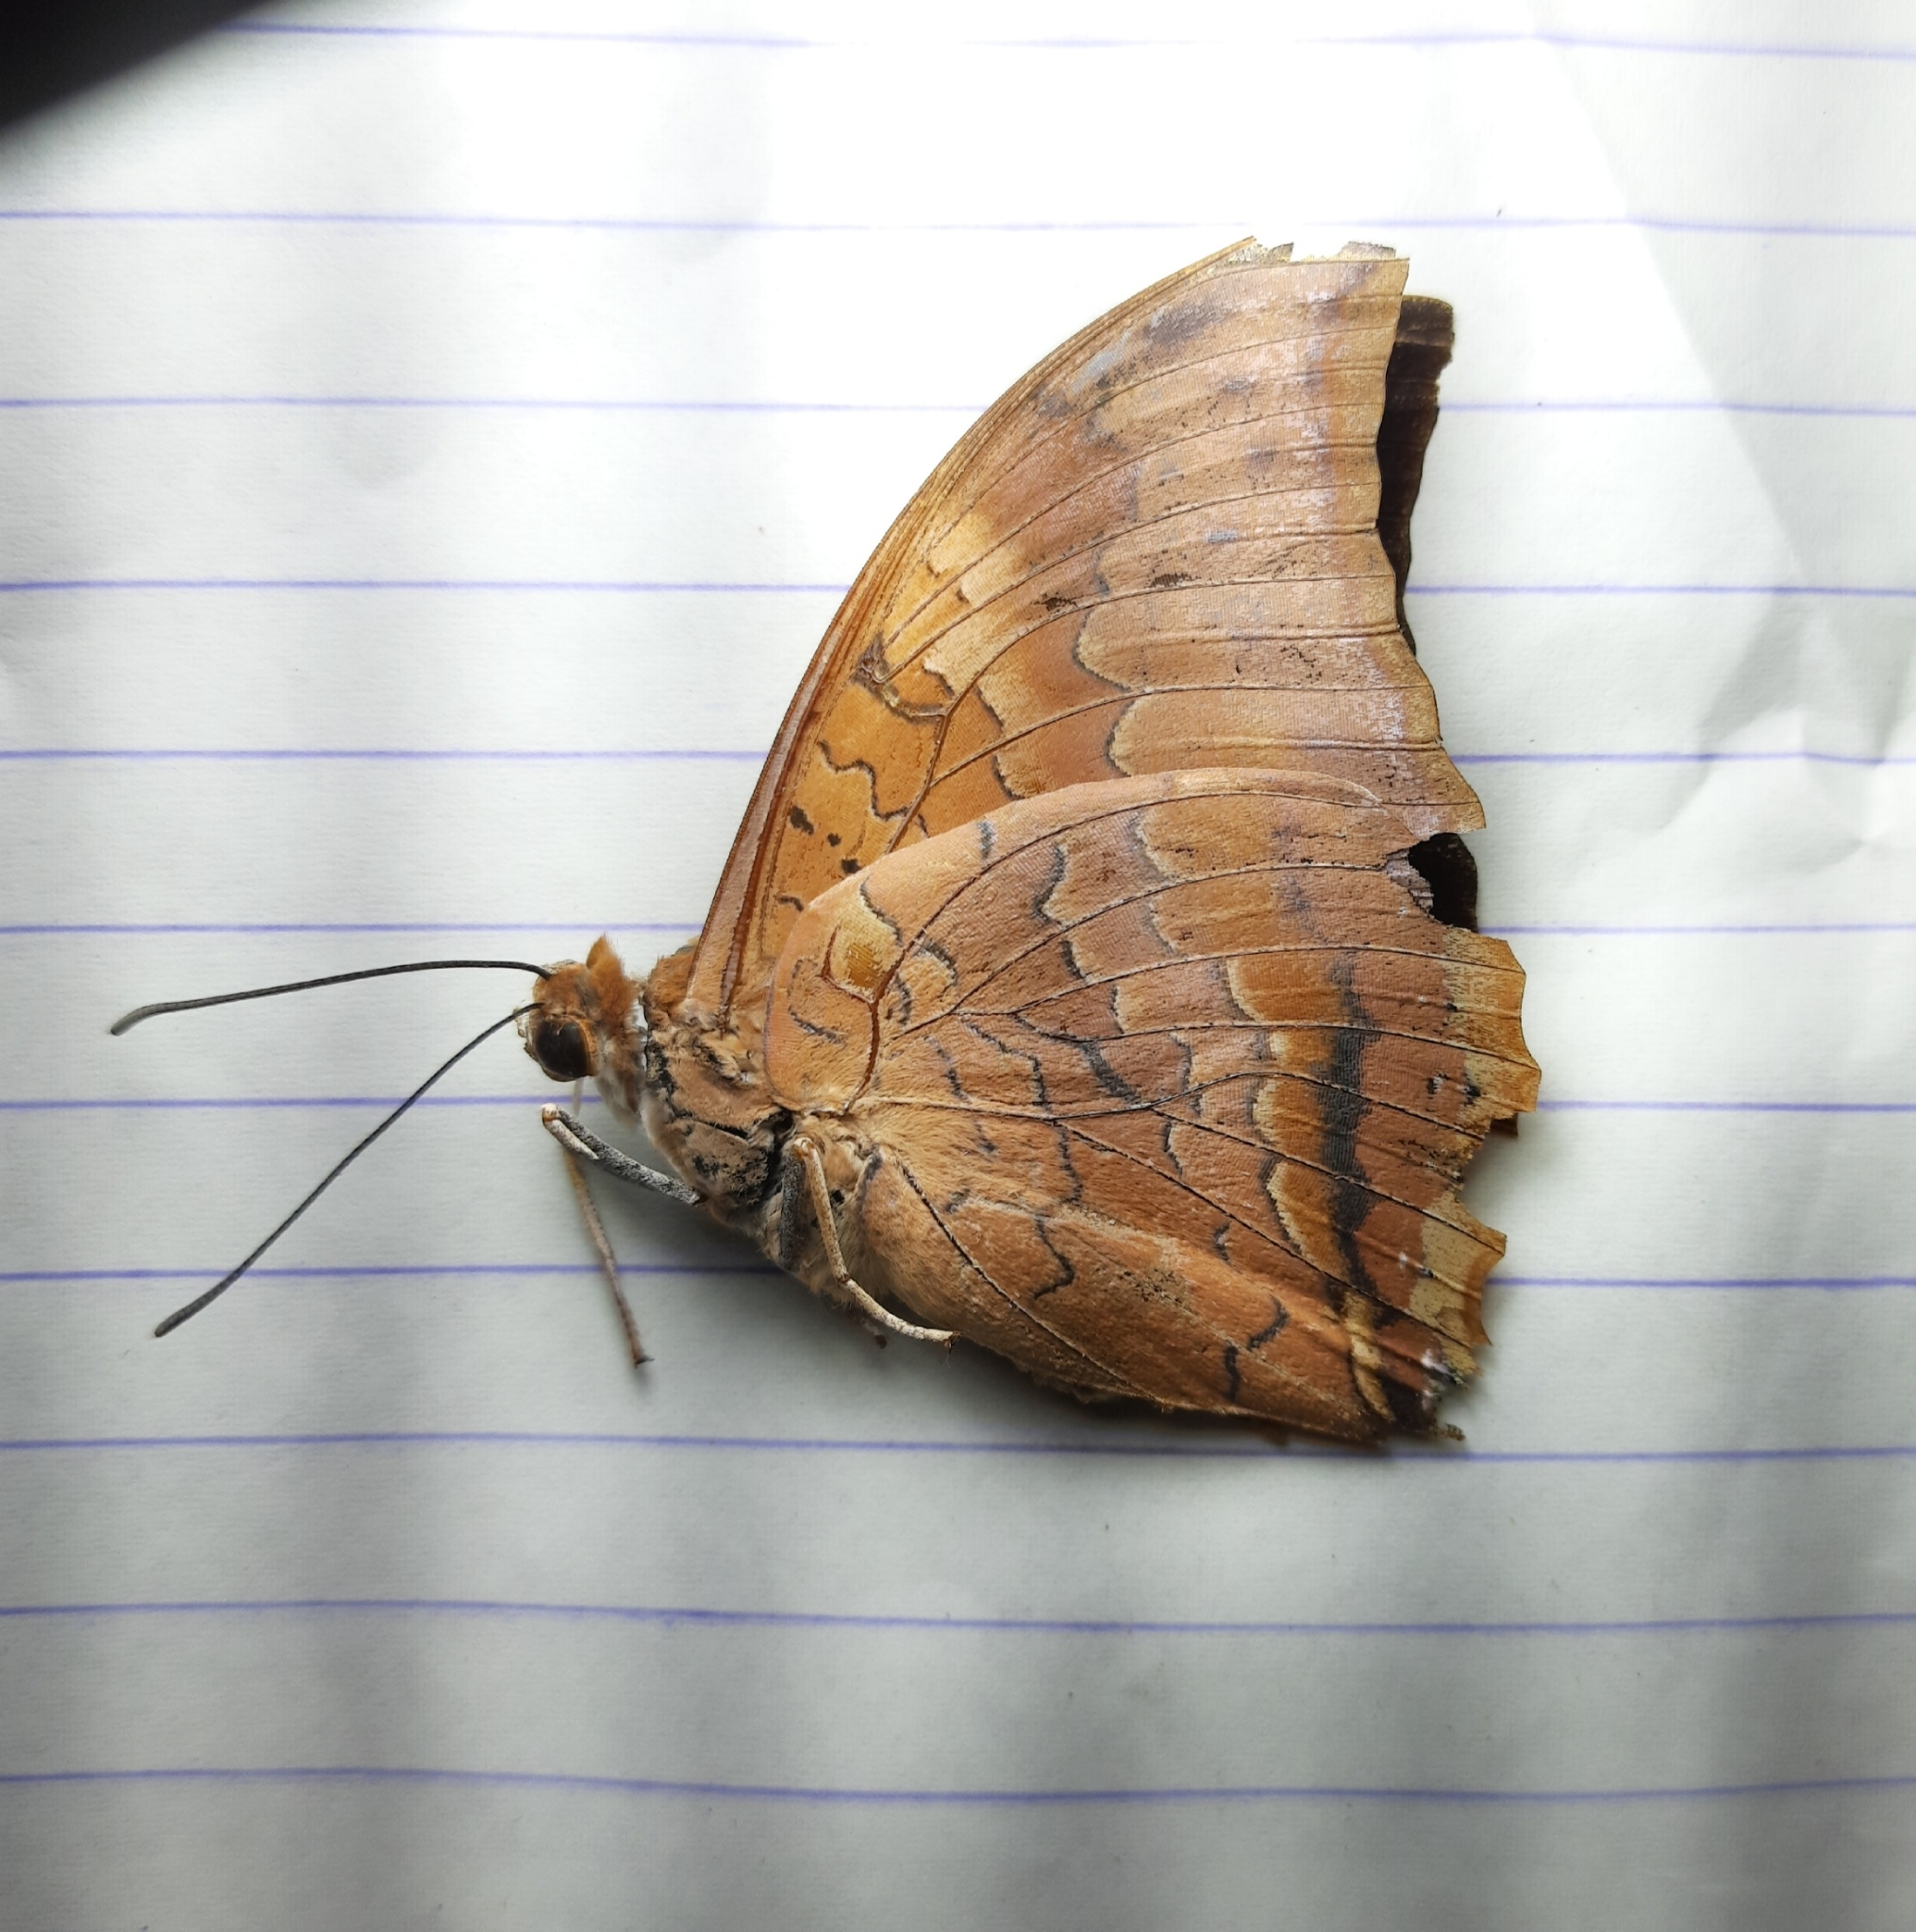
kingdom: Animalia
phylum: Arthropoda
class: Insecta
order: Lepidoptera
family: Nymphalidae
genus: Charaxes
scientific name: Charaxes psaphon
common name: Plain tawny rajah
